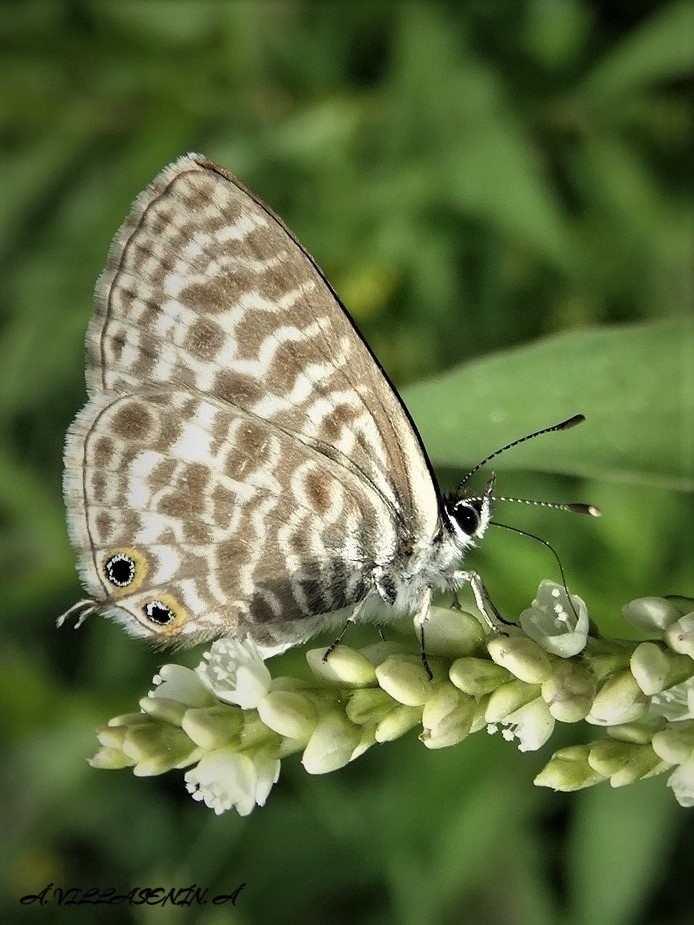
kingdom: Animalia
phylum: Arthropoda
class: Insecta
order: Lepidoptera
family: Lycaenidae
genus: Leptotes
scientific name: Leptotes pirithous
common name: Lang's short-tailed blue
